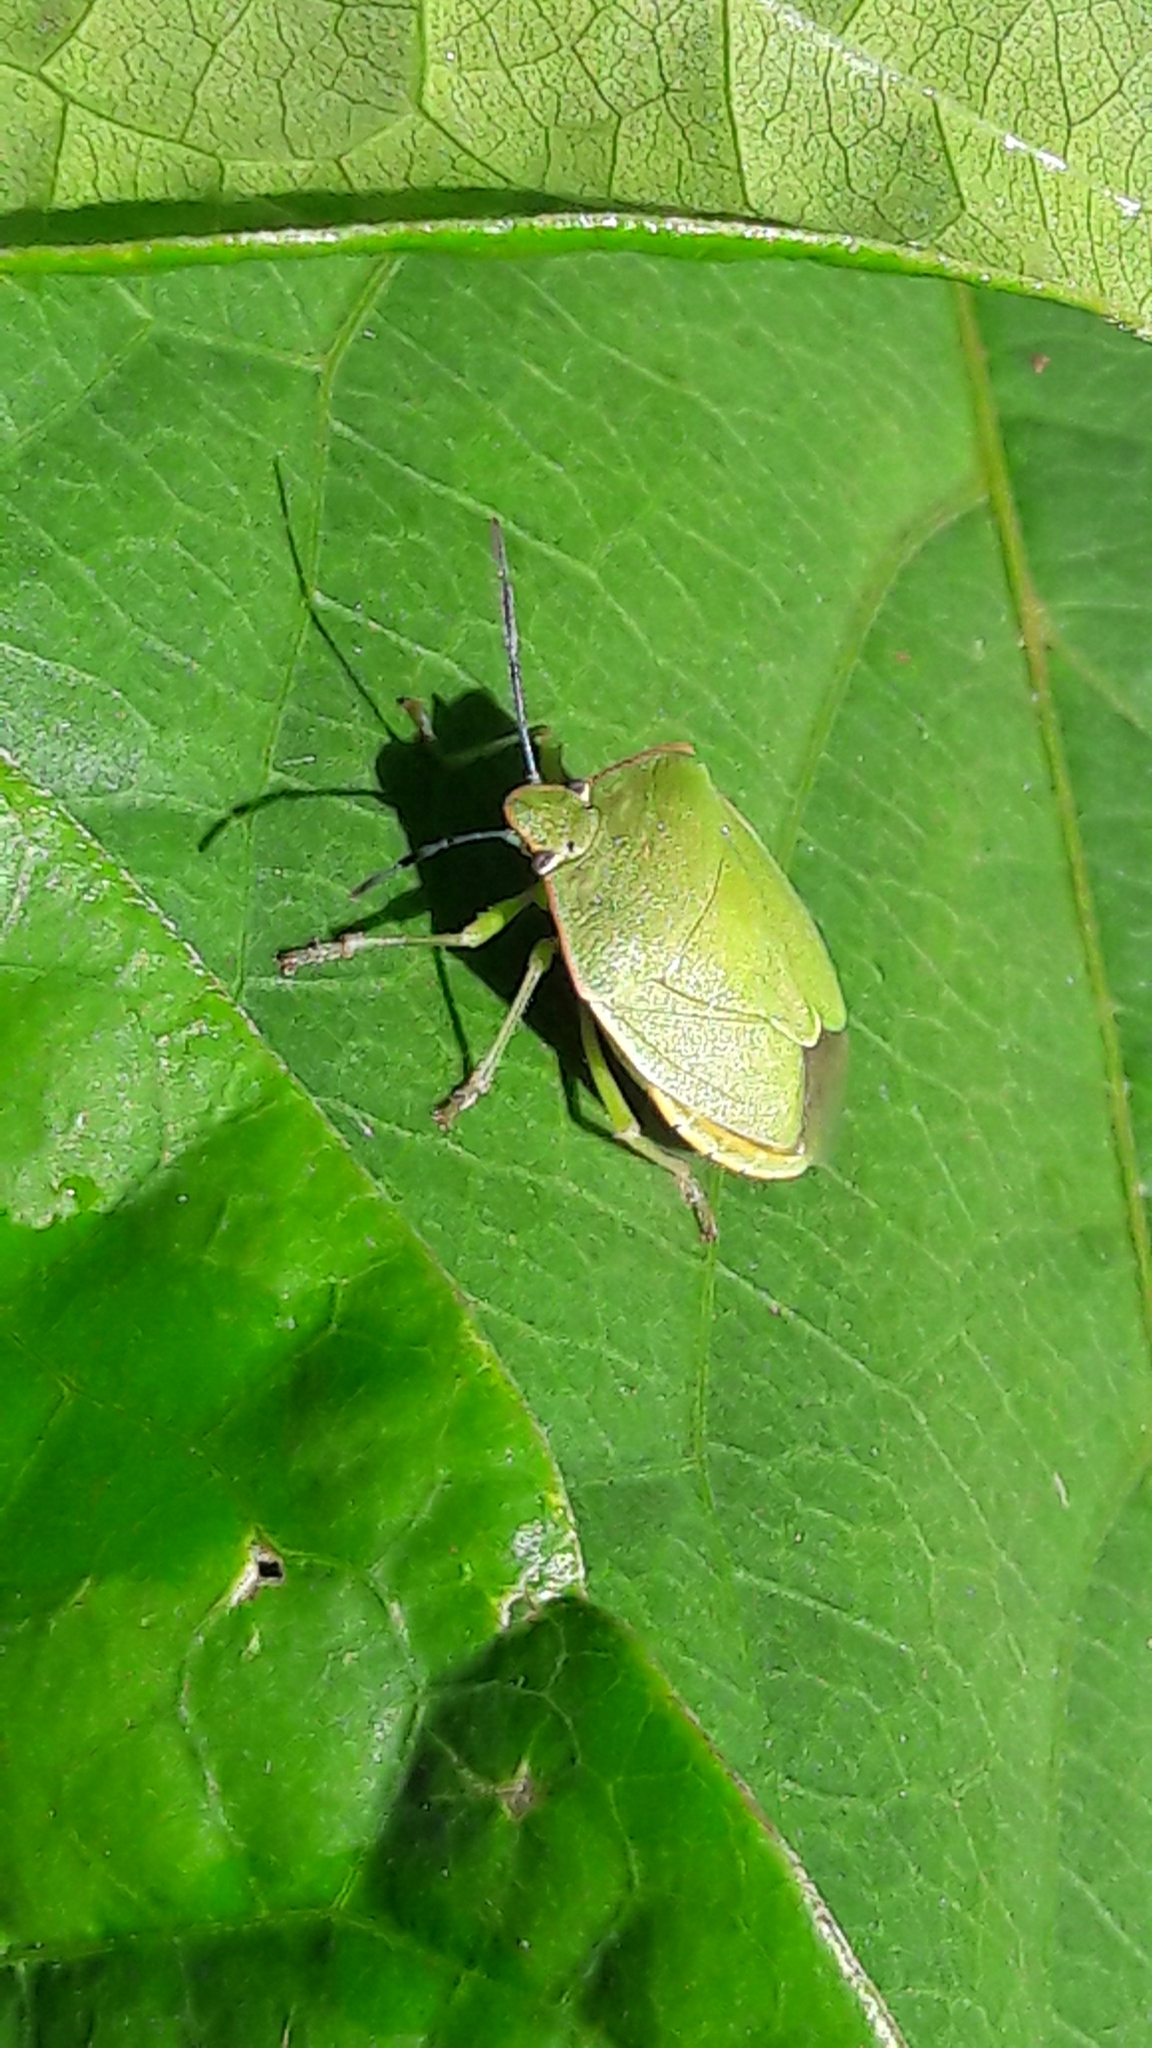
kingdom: Animalia
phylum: Arthropoda
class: Insecta
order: Hemiptera
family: Pentatomidae
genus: Chinavia
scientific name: Chinavia ubica
